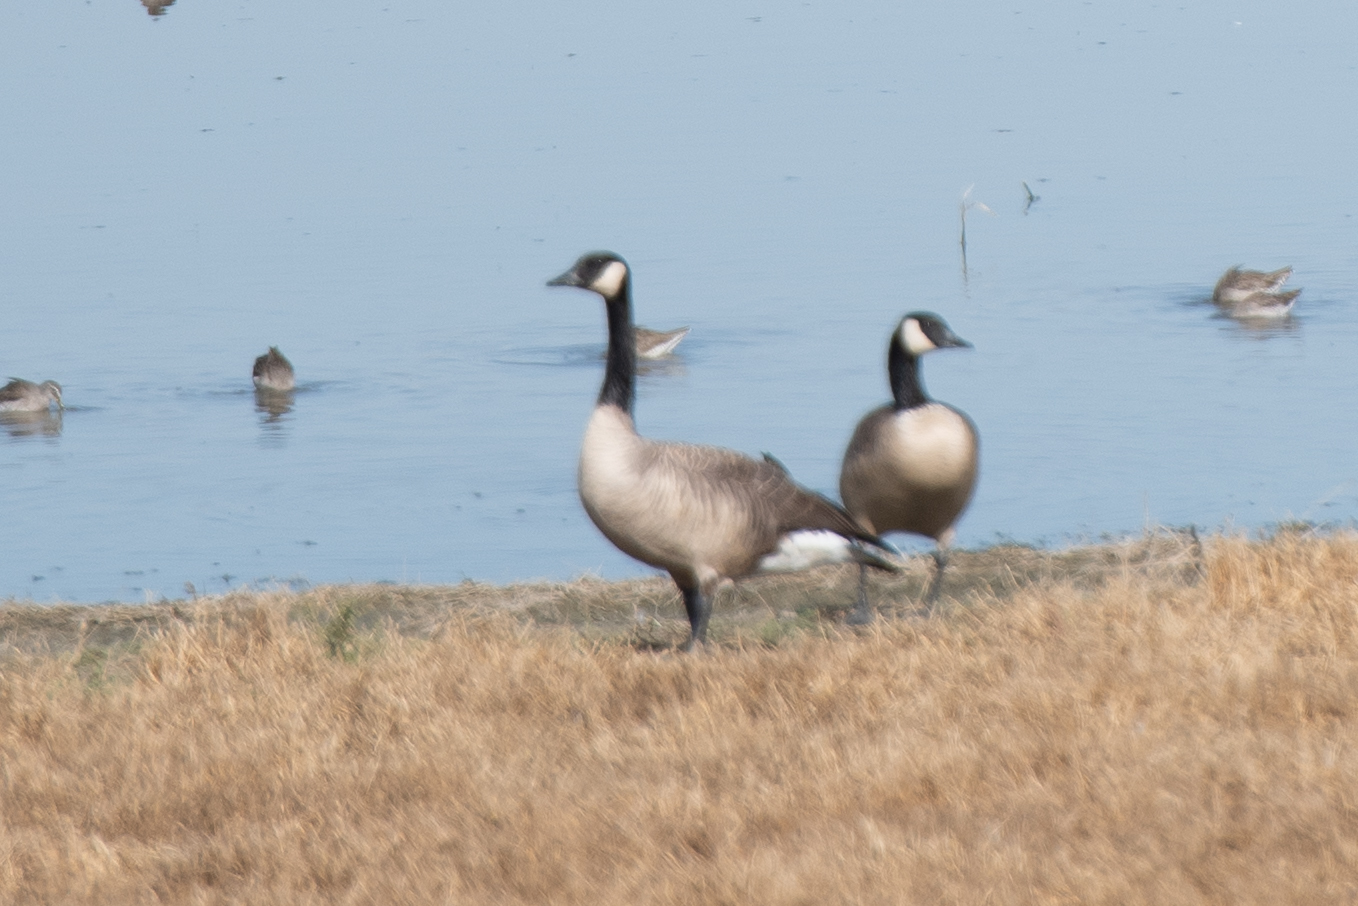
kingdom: Animalia
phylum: Chordata
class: Aves
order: Anseriformes
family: Anatidae
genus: Branta
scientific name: Branta canadensis
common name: Canada goose
